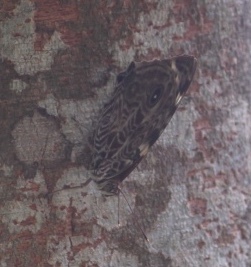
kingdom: Animalia
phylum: Arthropoda
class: Insecta
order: Lepidoptera
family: Nymphalidae
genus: Smyrna
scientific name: Smyrna blomfildia
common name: Blomfild's beauty
